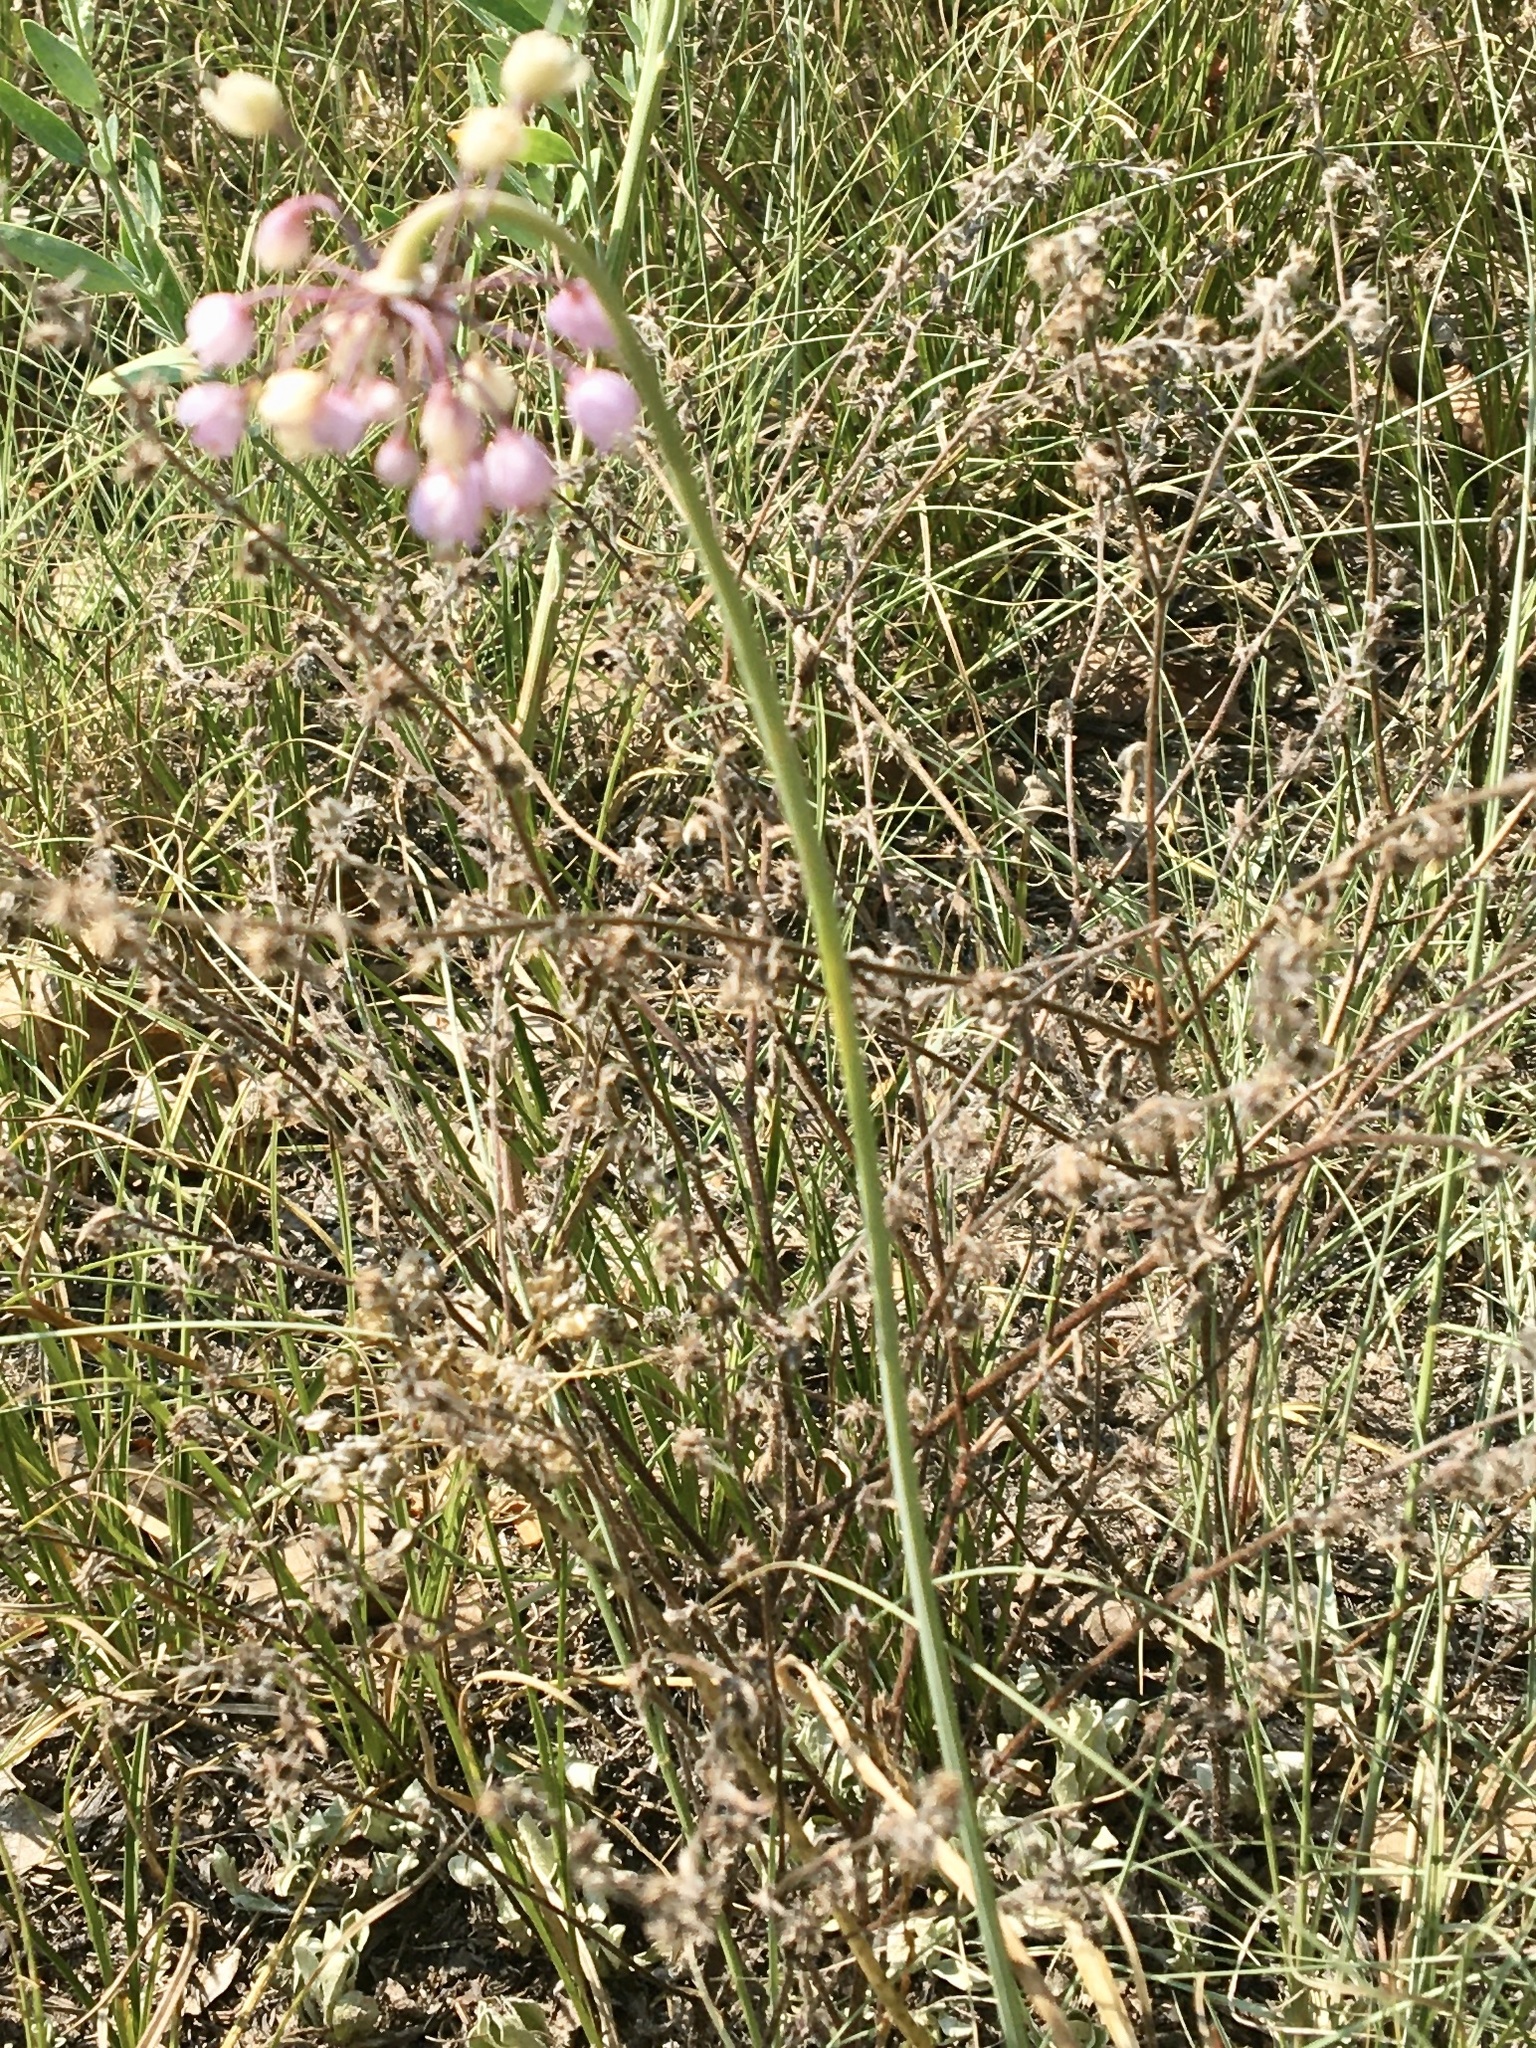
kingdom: Plantae
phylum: Tracheophyta
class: Liliopsida
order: Asparagales
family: Amaryllidaceae
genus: Allium
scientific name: Allium cernuum
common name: Nodding onion
